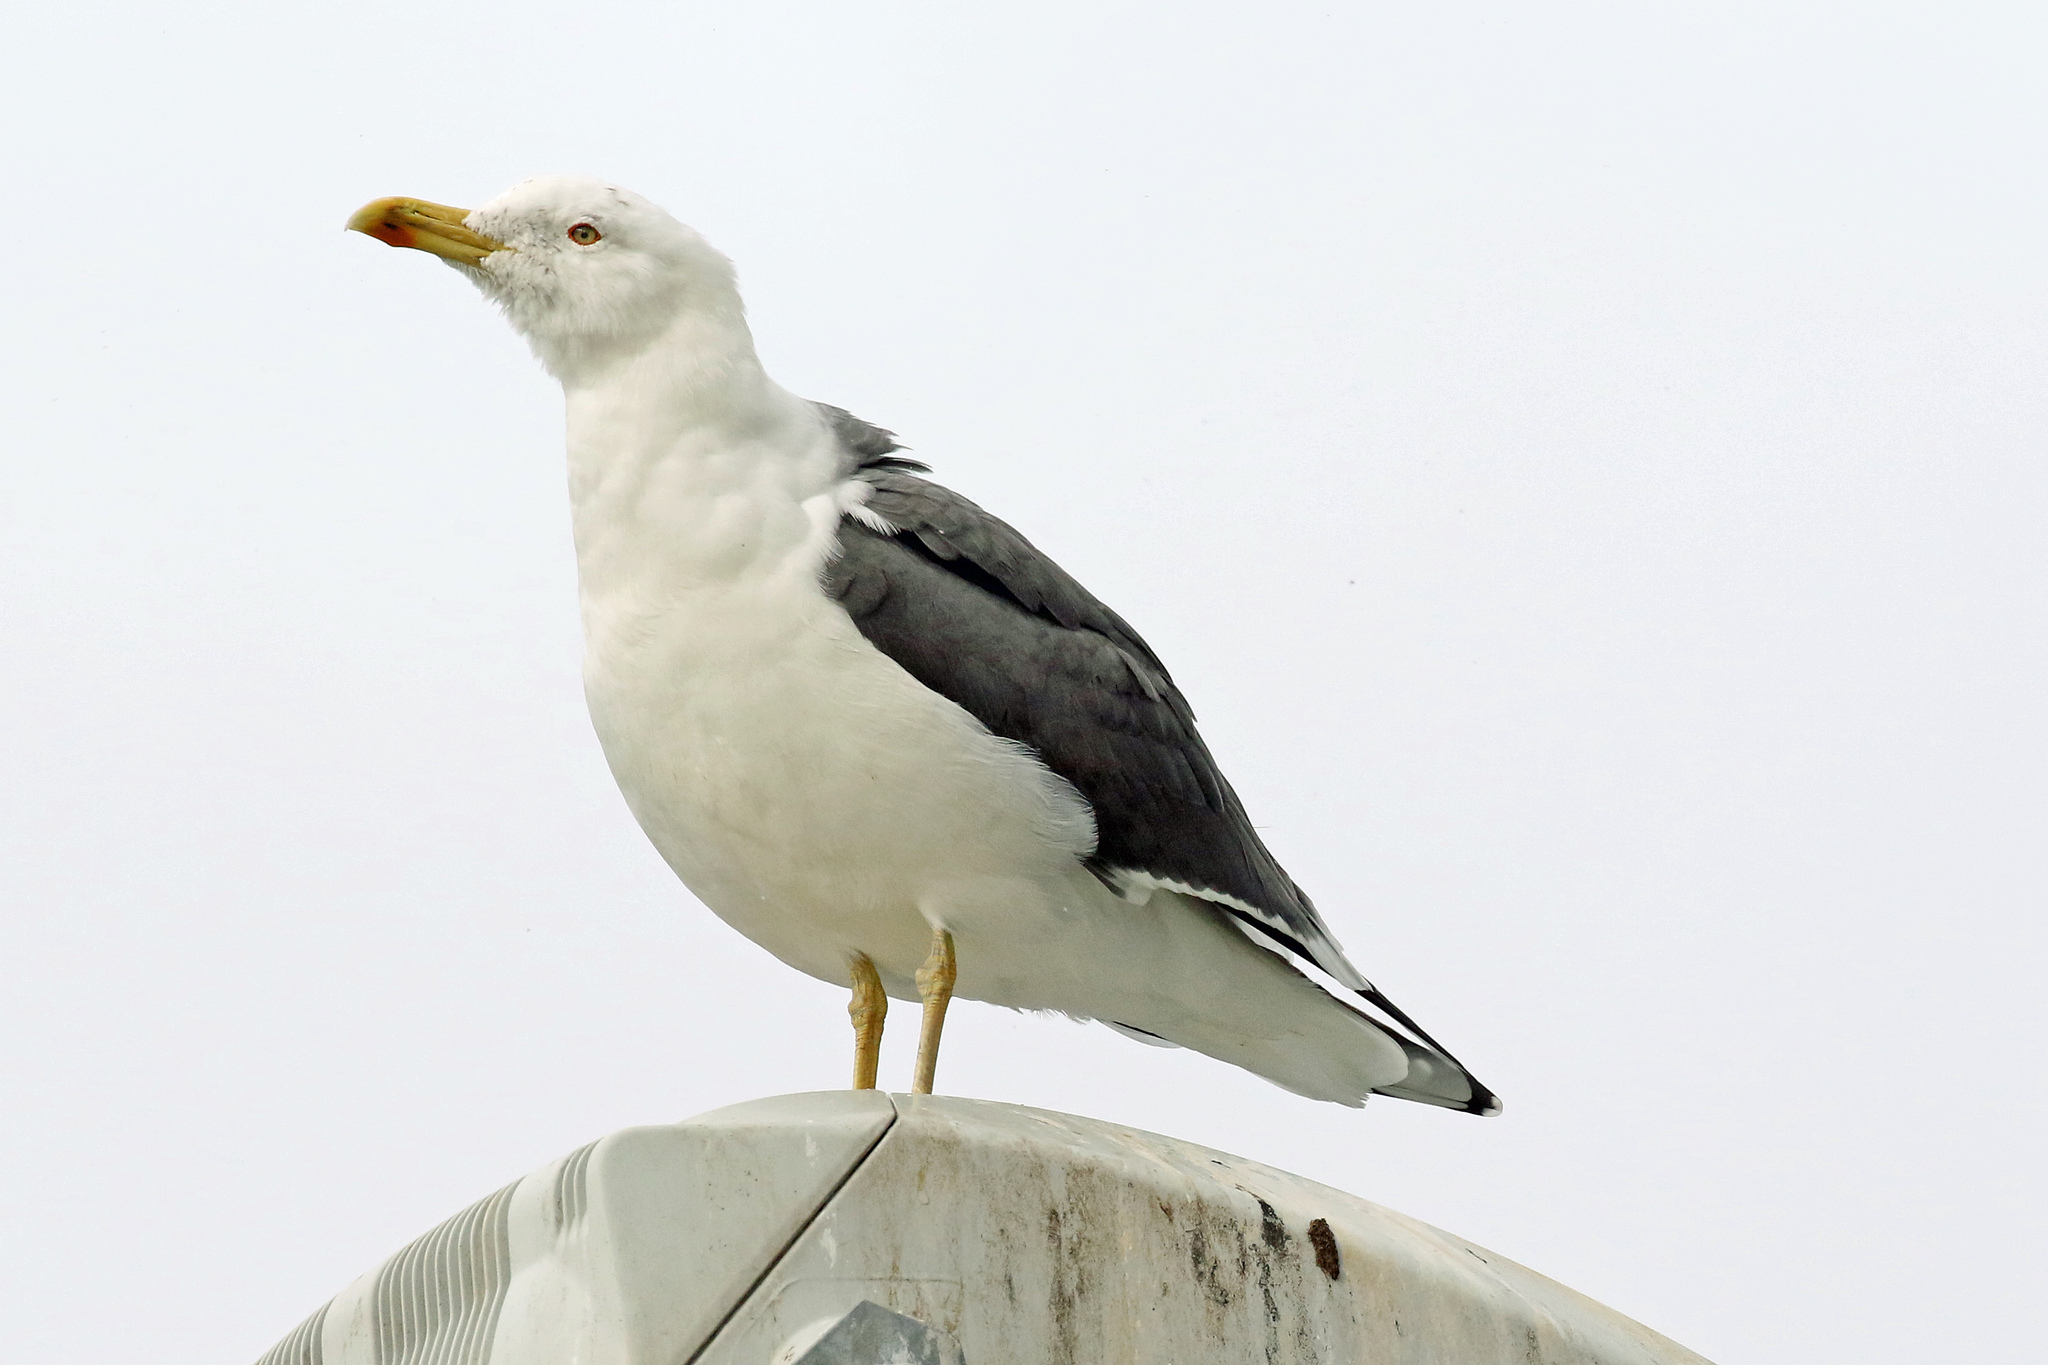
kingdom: Animalia
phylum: Chordata
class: Aves
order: Charadriiformes
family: Laridae
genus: Larus
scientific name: Larus fuscus
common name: Lesser black-backed gull
